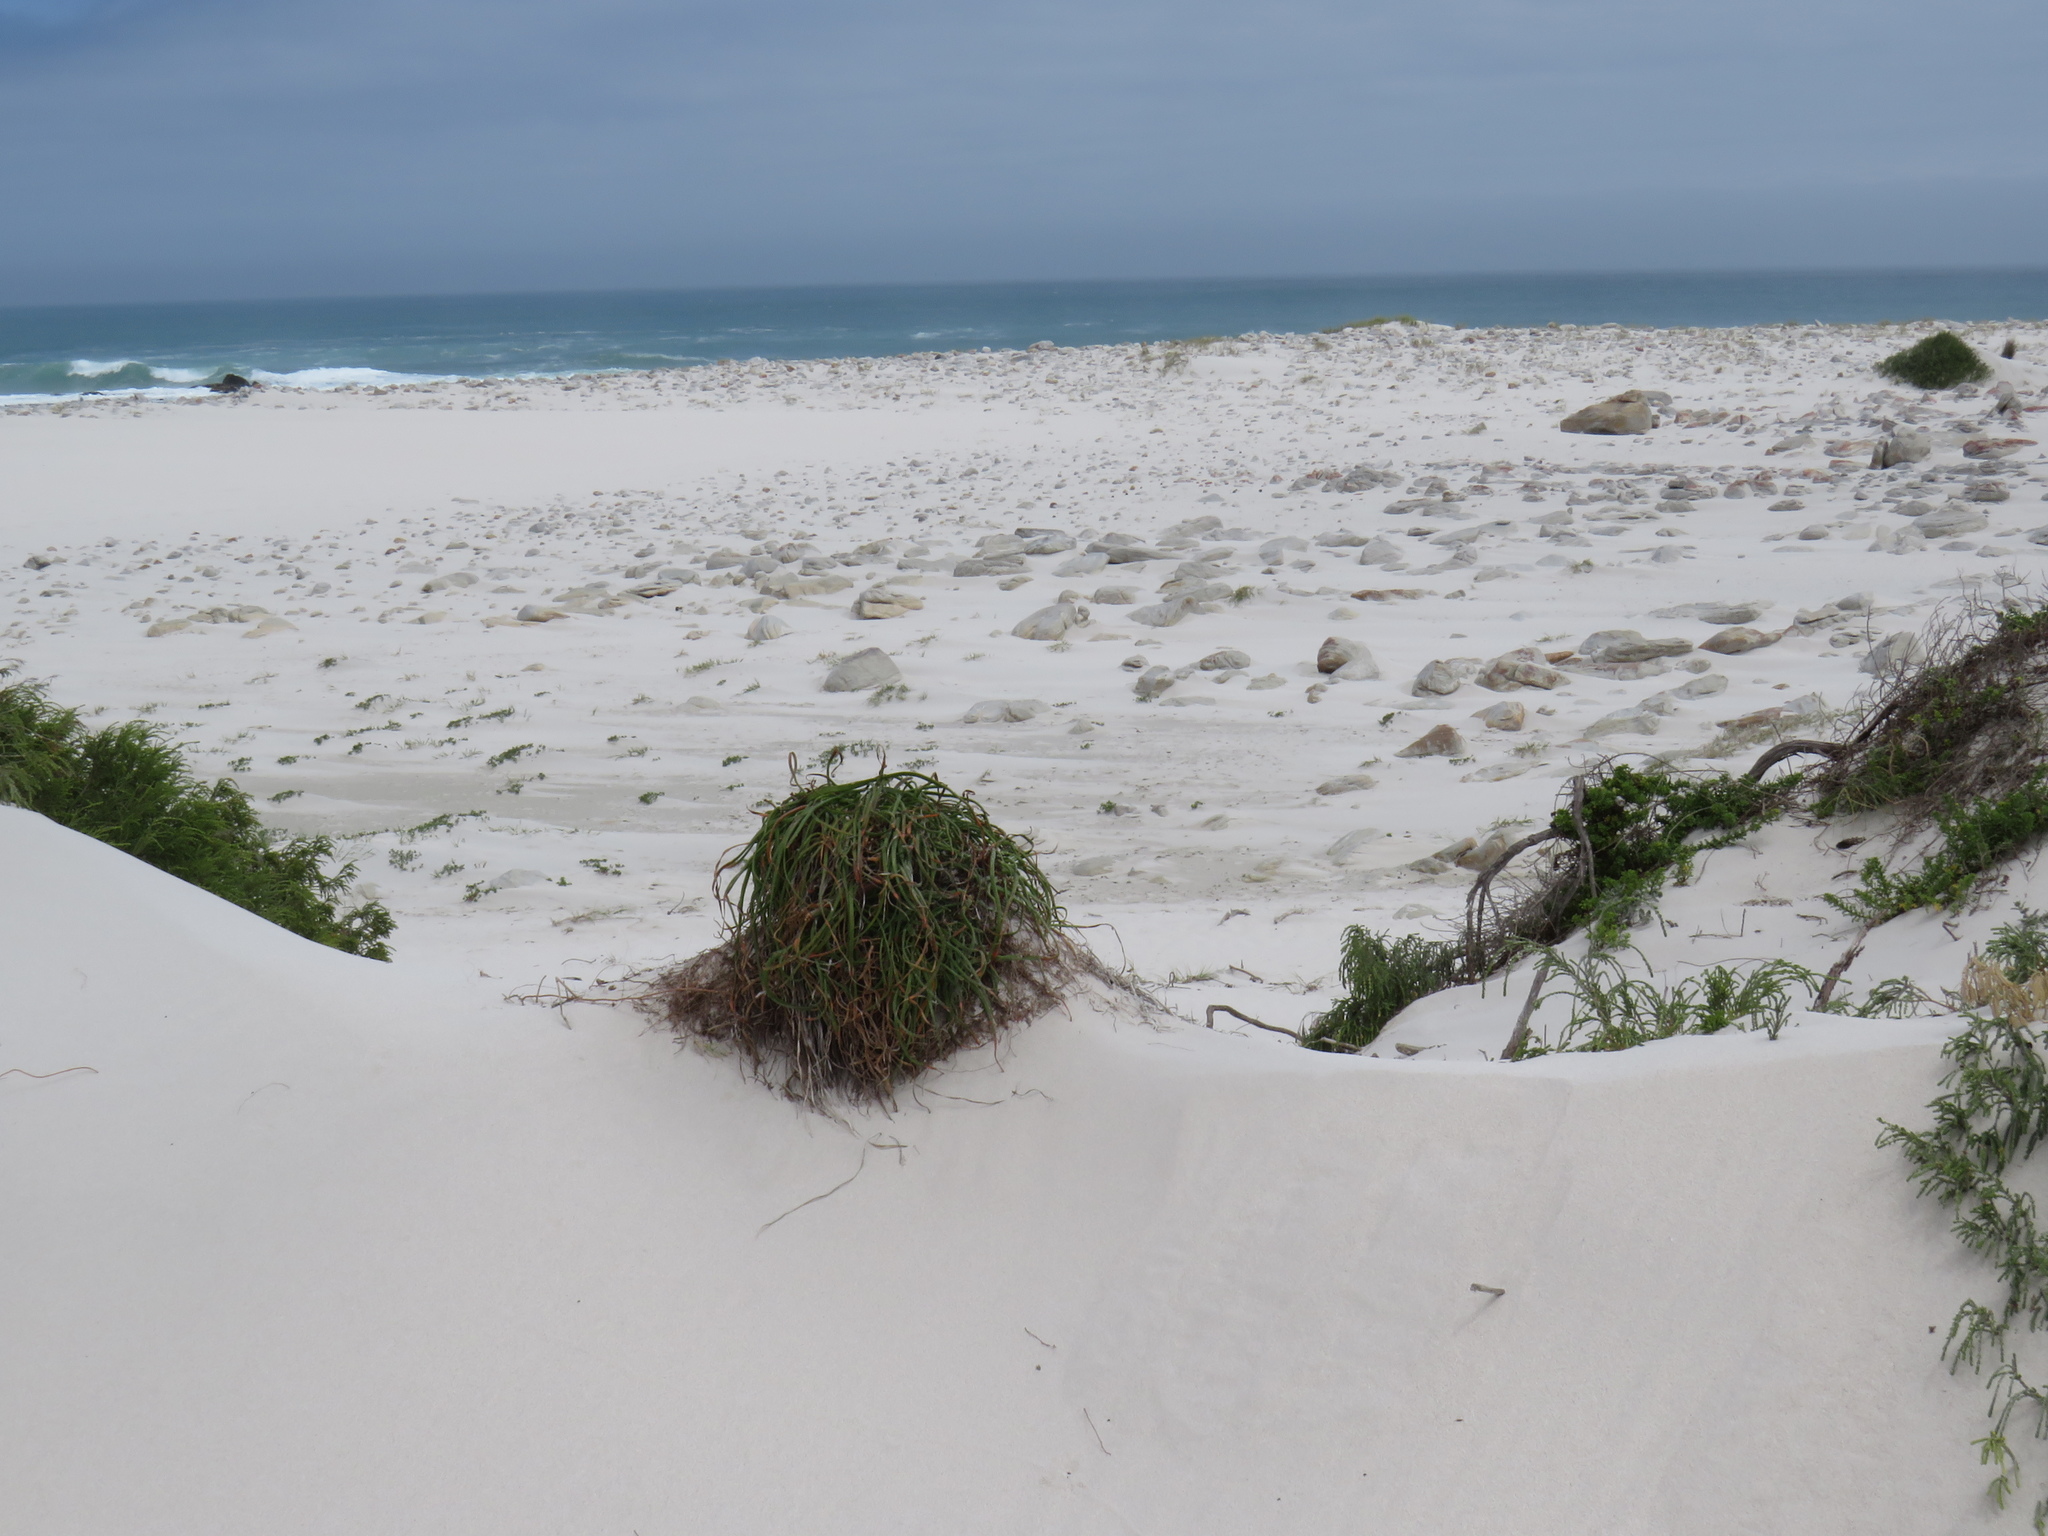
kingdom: Plantae
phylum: Tracheophyta
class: Liliopsida
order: Asparagales
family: Asphodelaceae
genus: Trachyandra
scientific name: Trachyandra divaricata
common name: Dune onionweed
